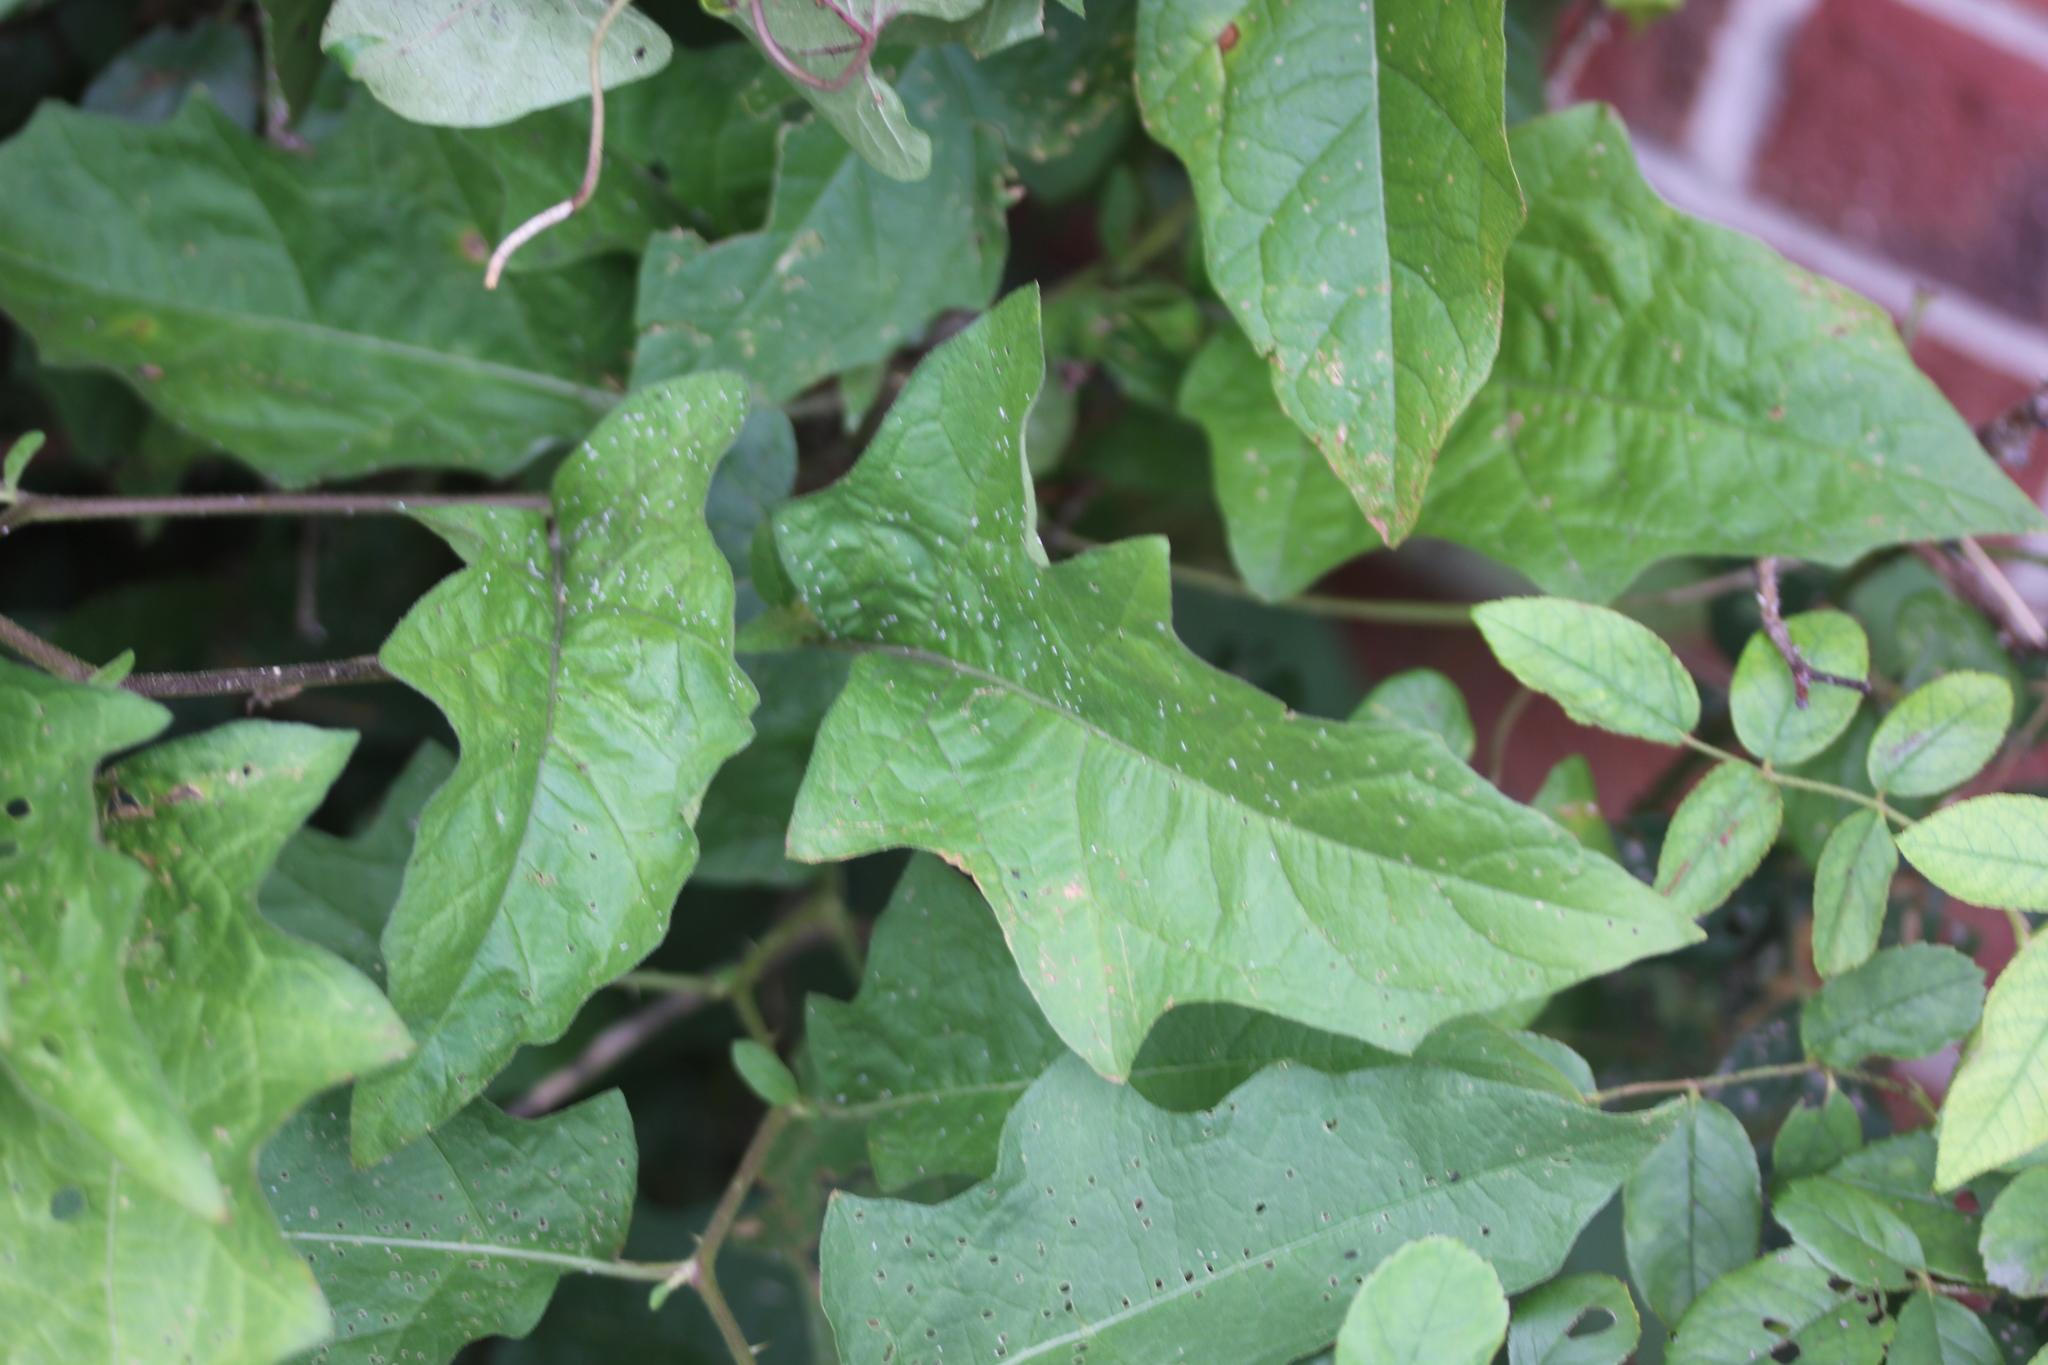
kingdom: Plantae
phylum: Tracheophyta
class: Magnoliopsida
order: Solanales
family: Solanaceae
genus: Solanum
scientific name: Solanum carolinense
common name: Horse-nettle
